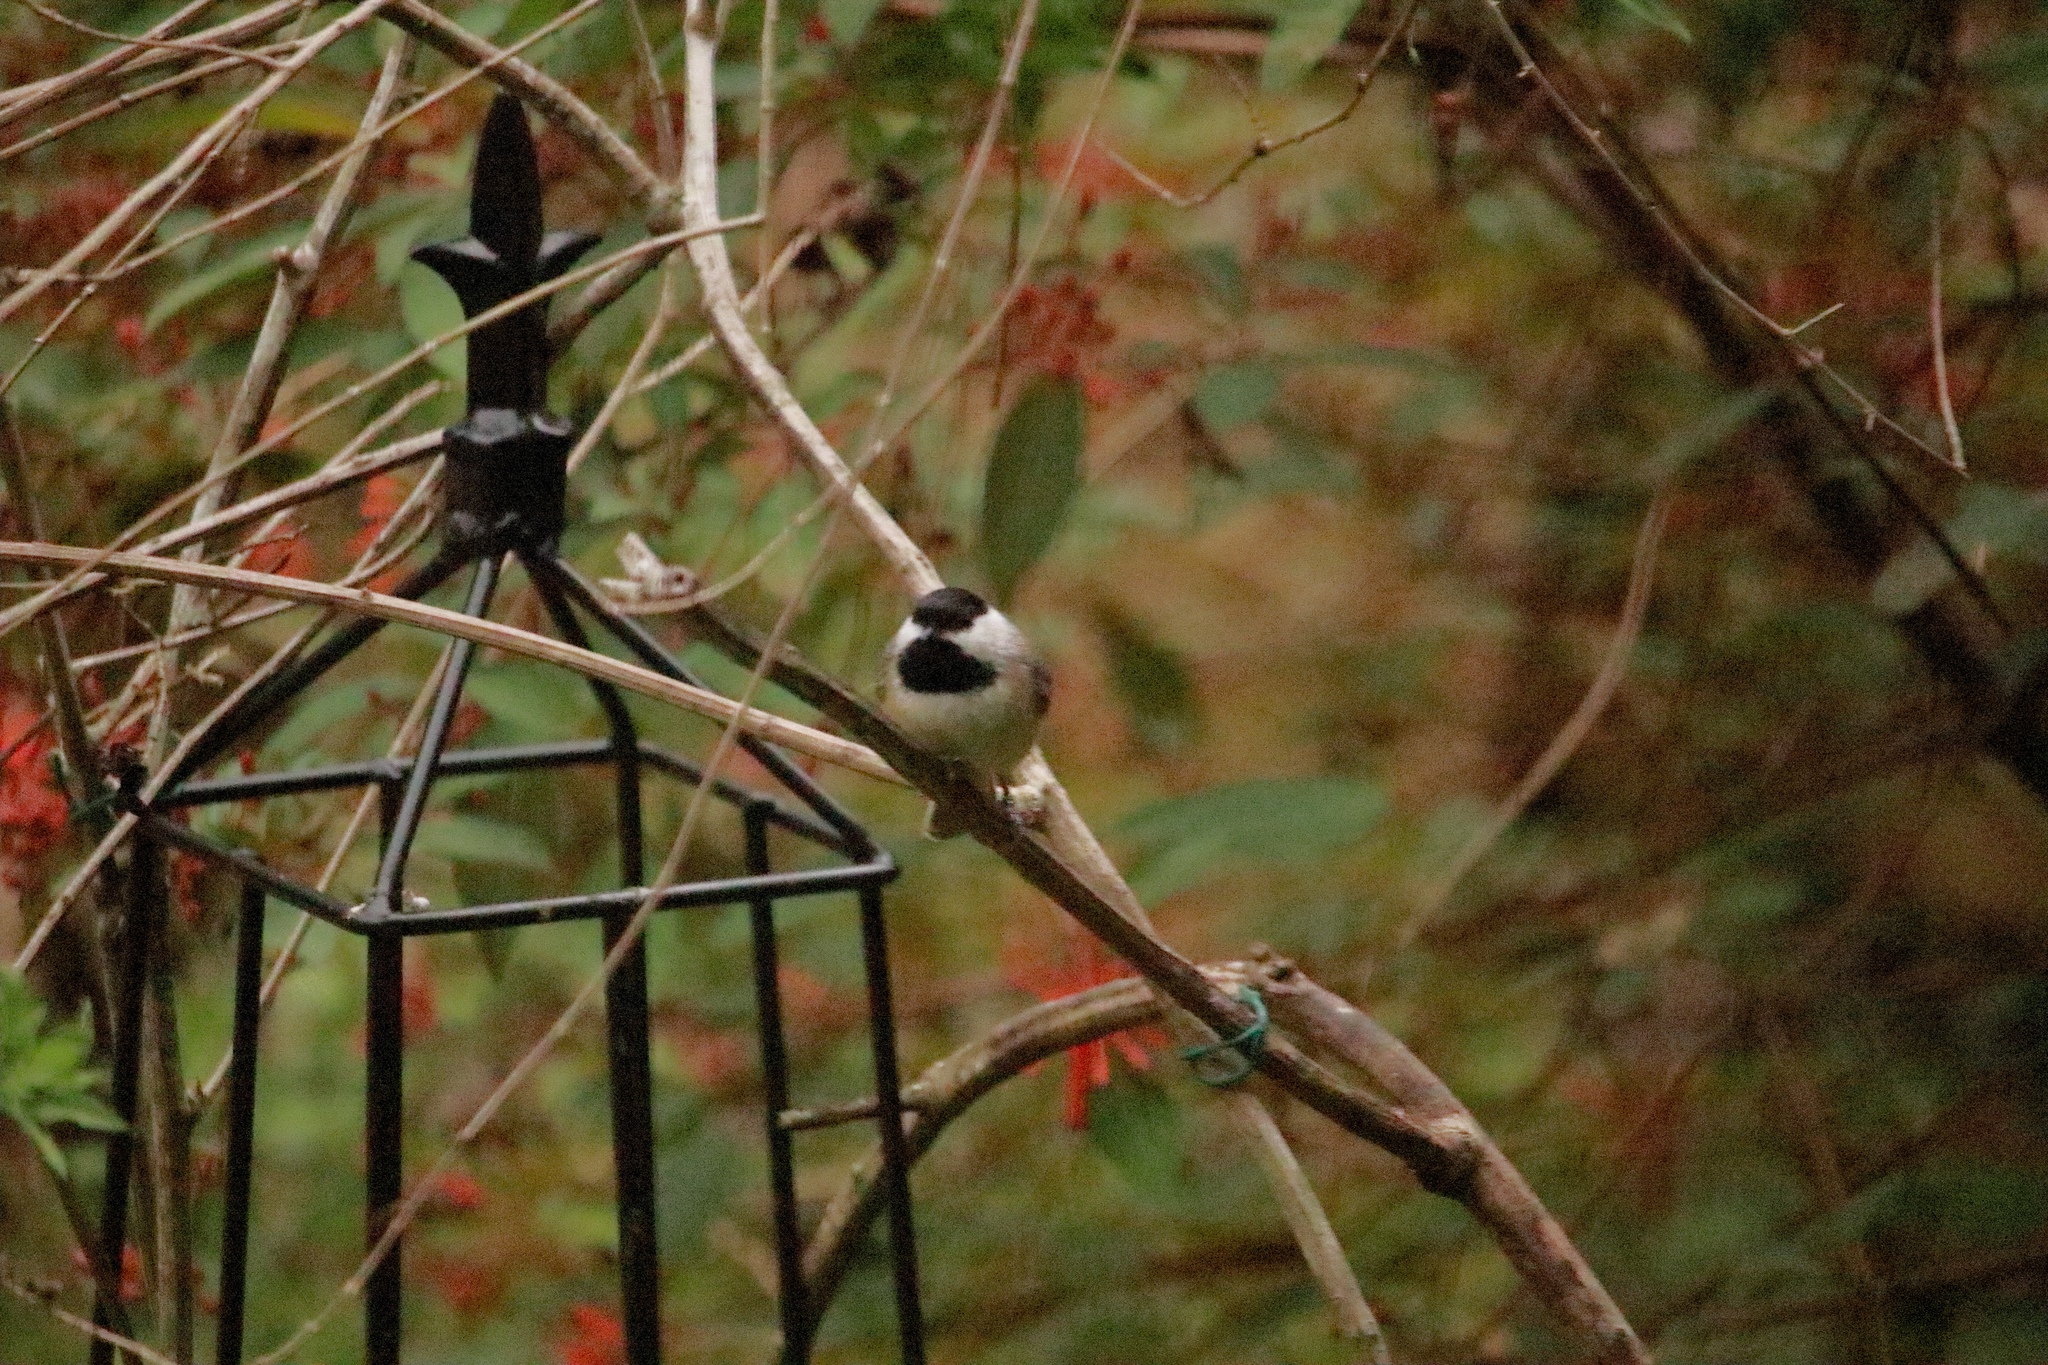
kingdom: Animalia
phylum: Chordata
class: Aves
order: Passeriformes
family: Paridae
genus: Poecile
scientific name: Poecile carolinensis
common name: Carolina chickadee
